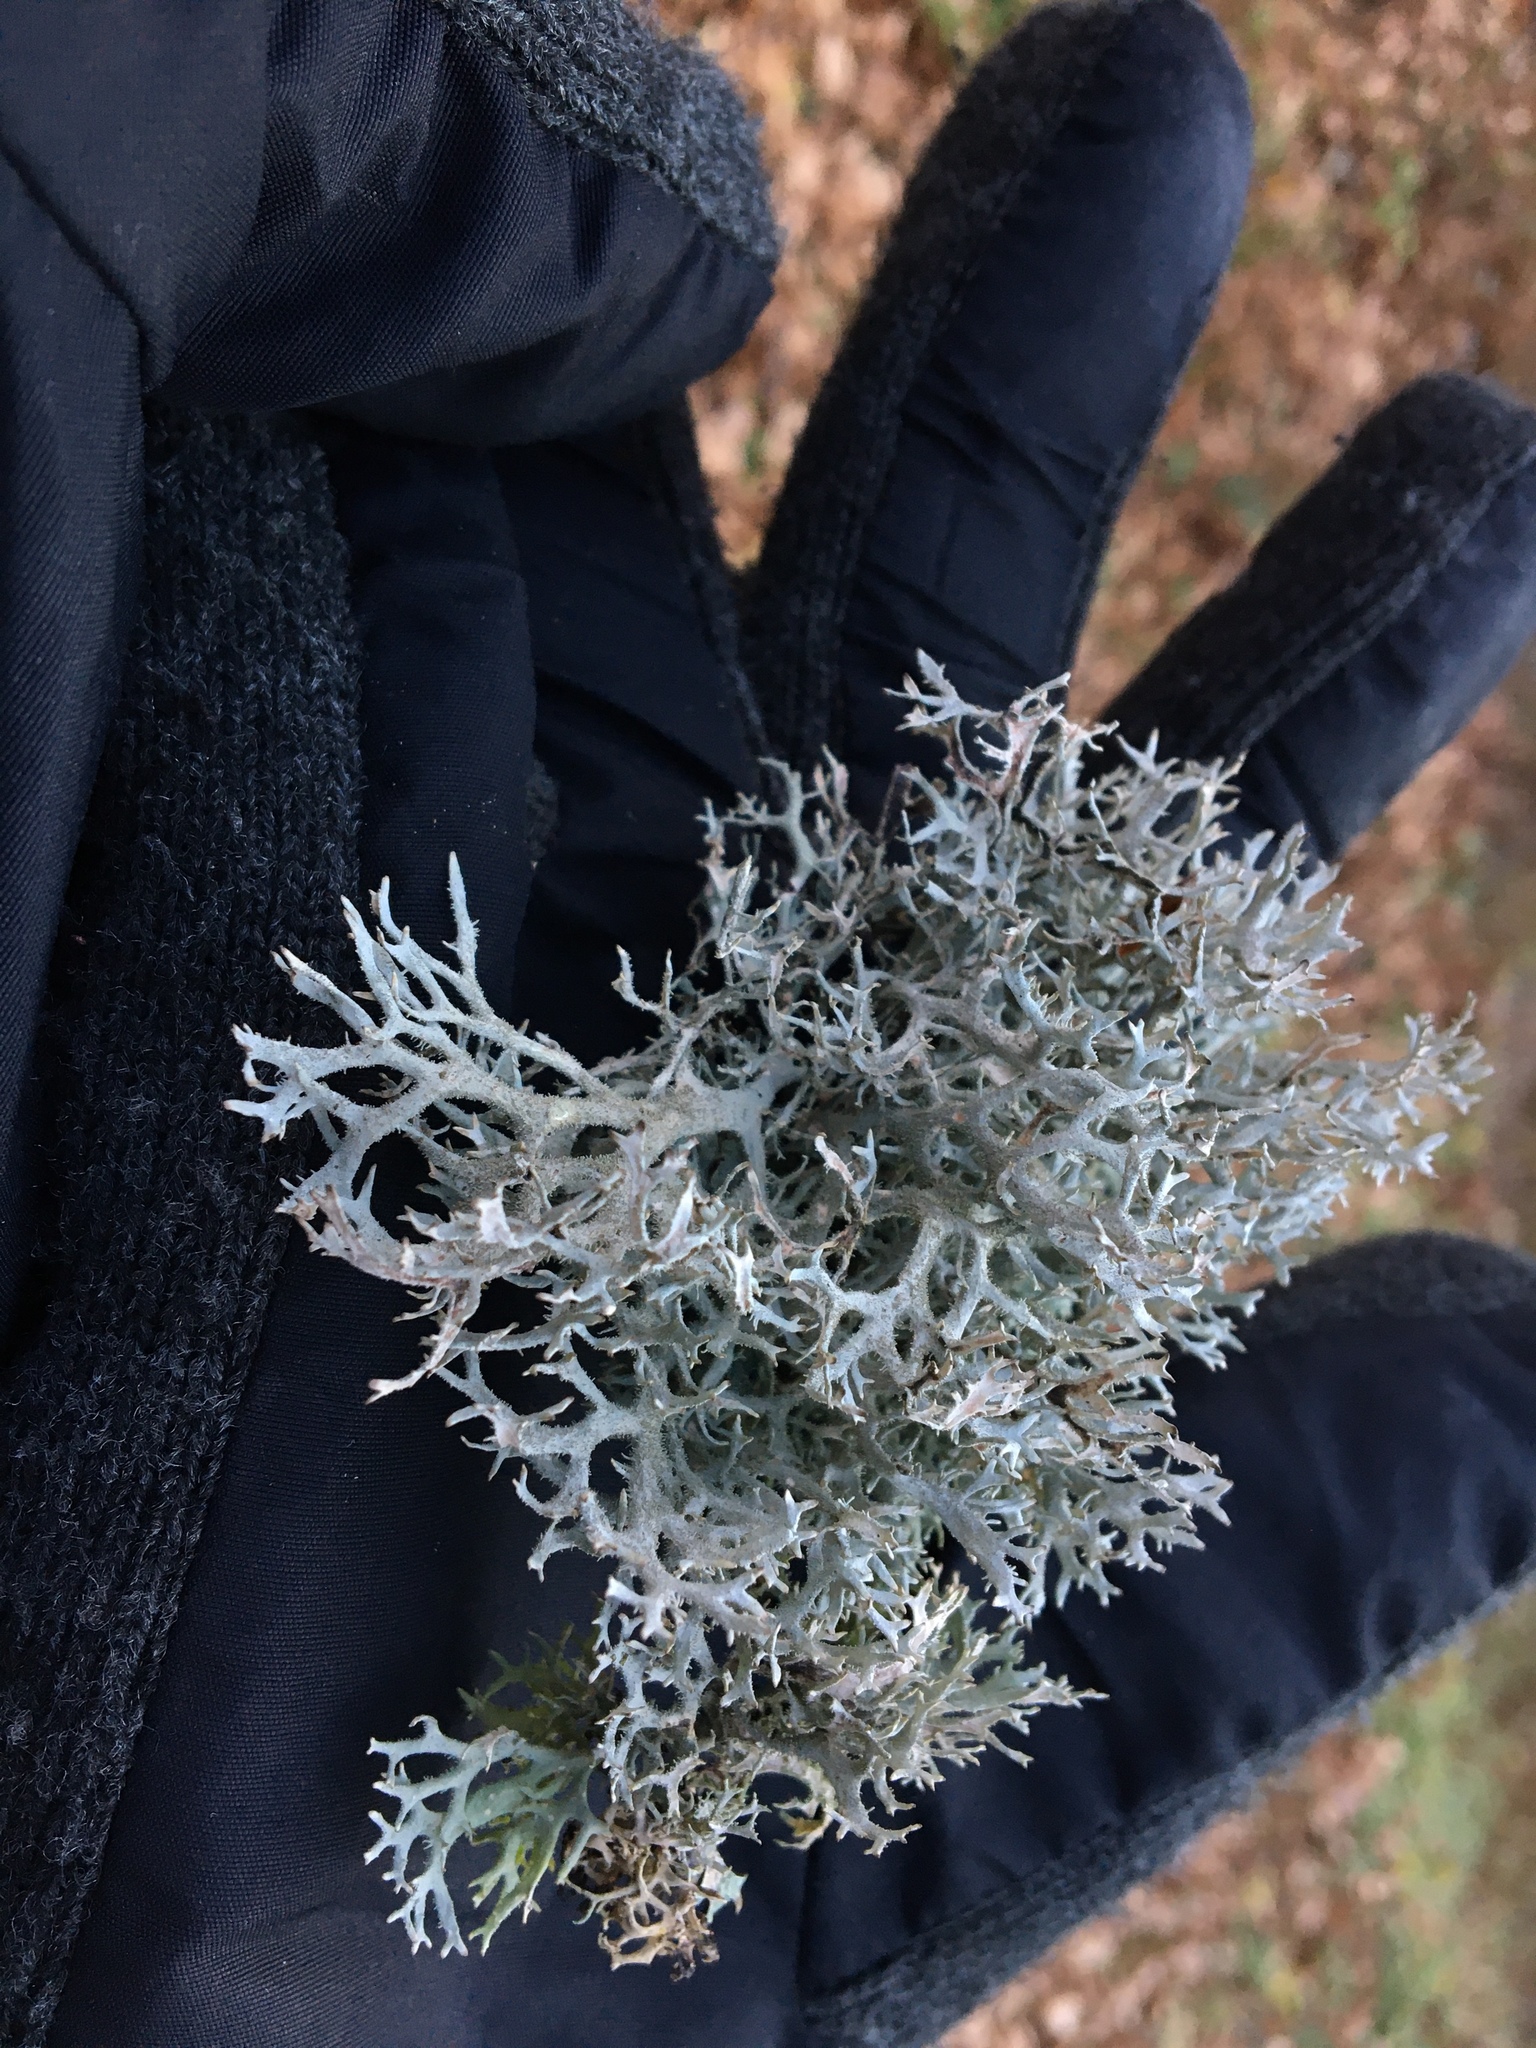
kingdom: Fungi
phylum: Ascomycota
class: Lecanoromycetes
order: Lecanorales
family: Parmeliaceae
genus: Pseudevernia
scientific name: Pseudevernia furfuracea
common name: Tree moss
